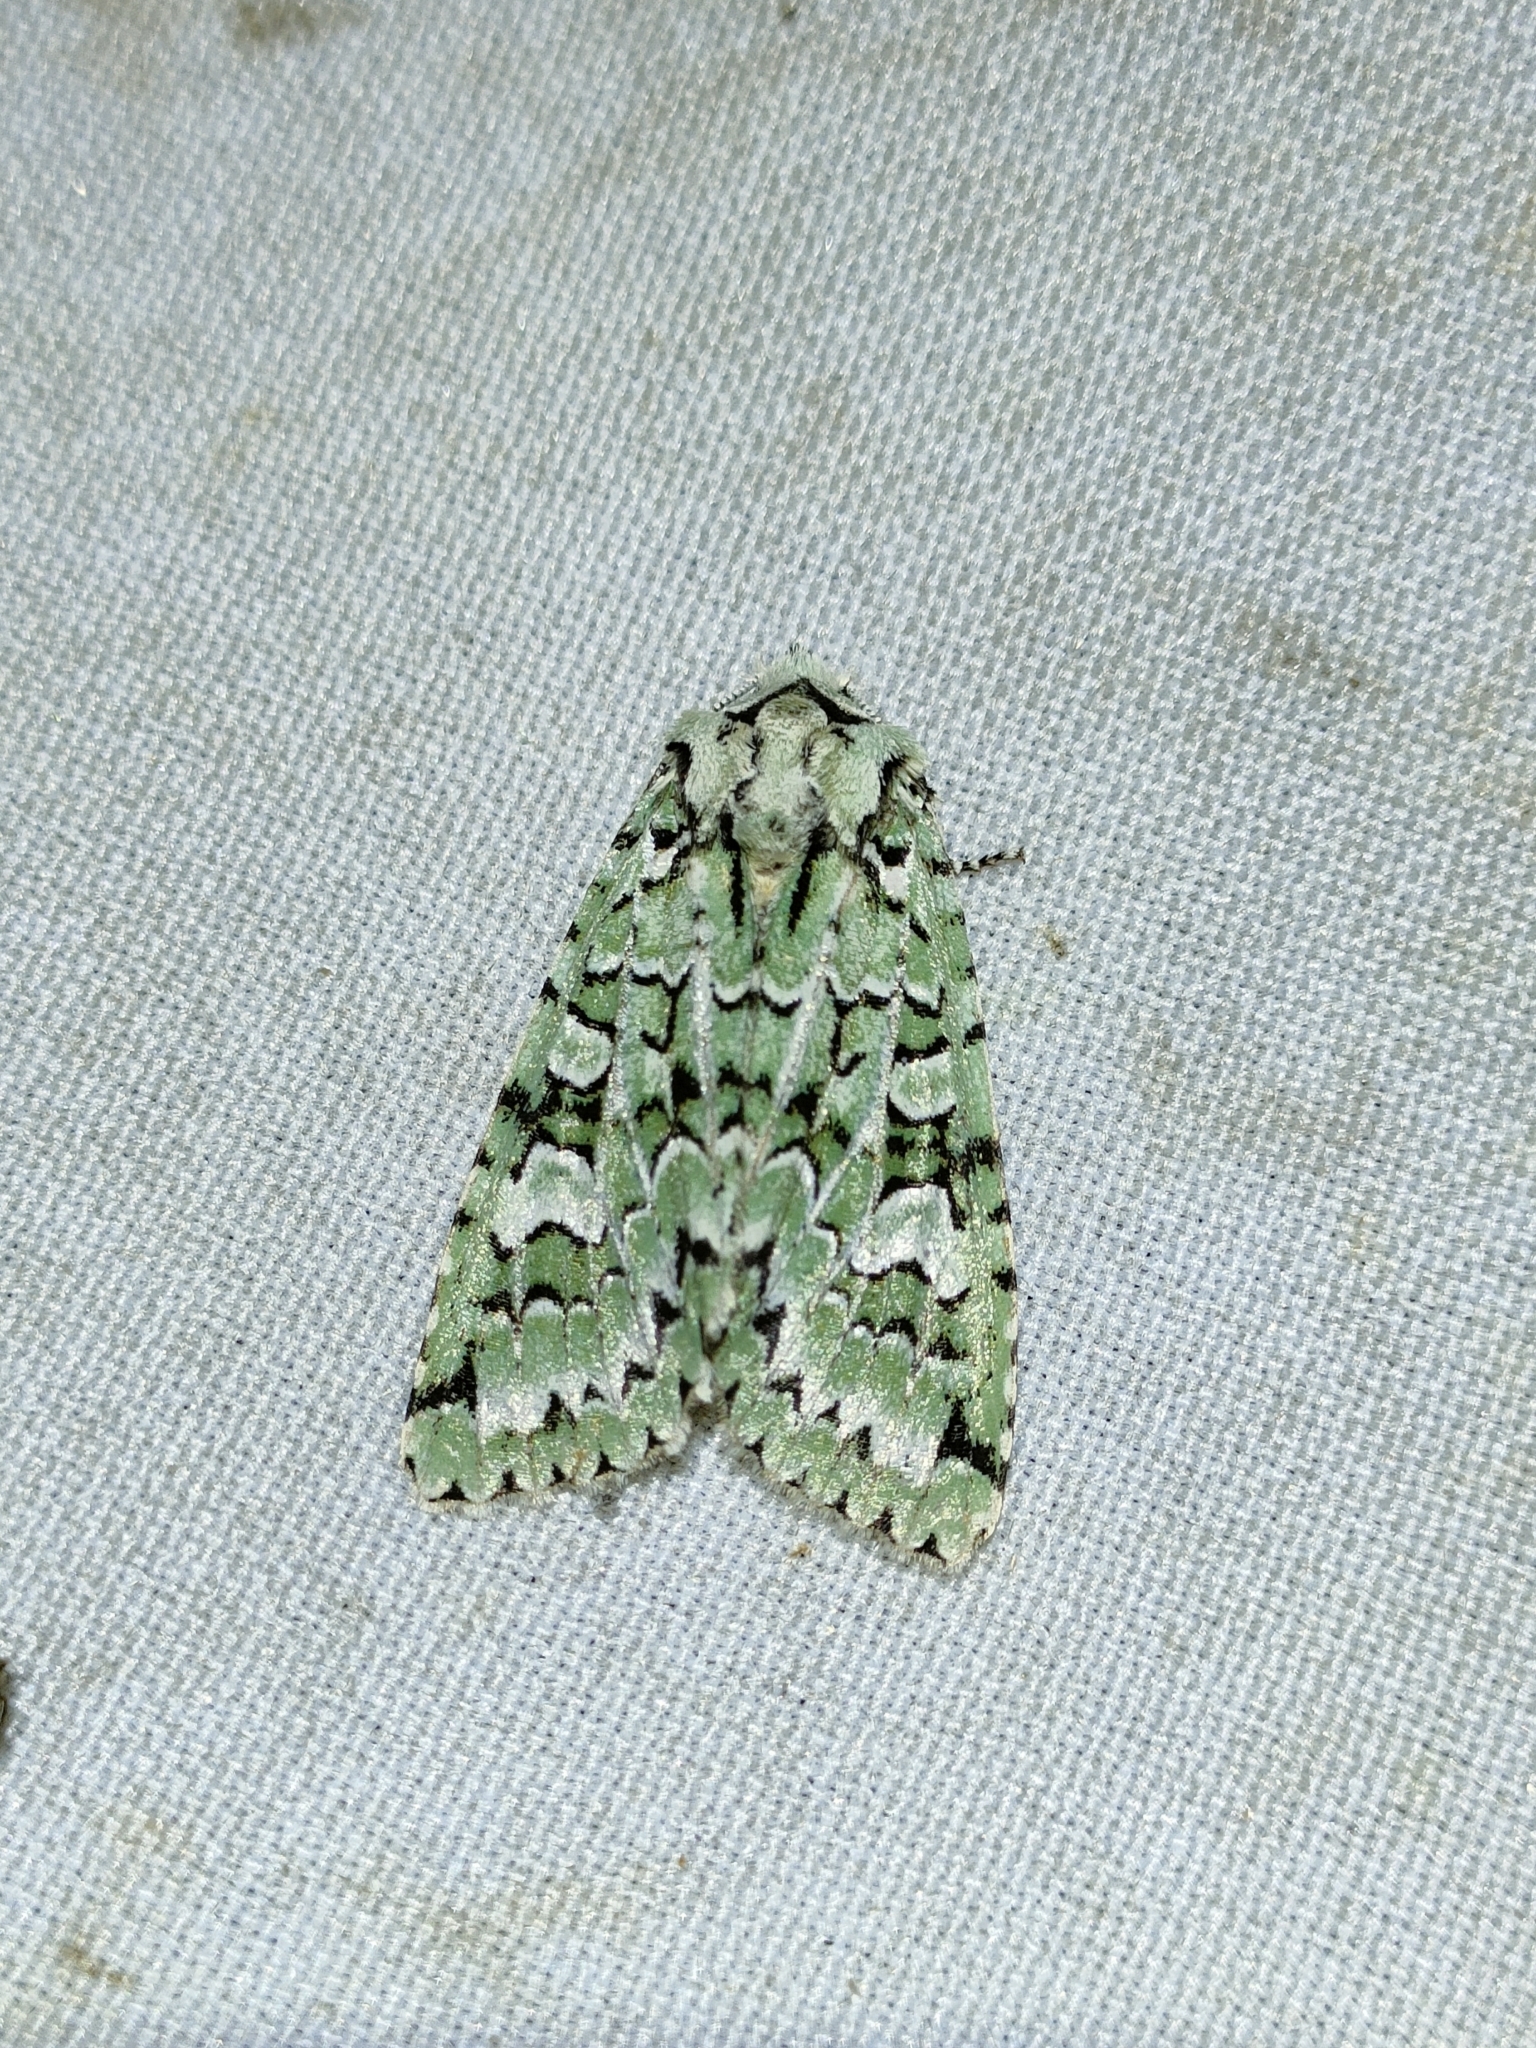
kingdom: Animalia
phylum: Arthropoda
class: Insecta
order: Lepidoptera
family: Noctuidae
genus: Griposia
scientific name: Griposia aprilina
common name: Merveille du jour
